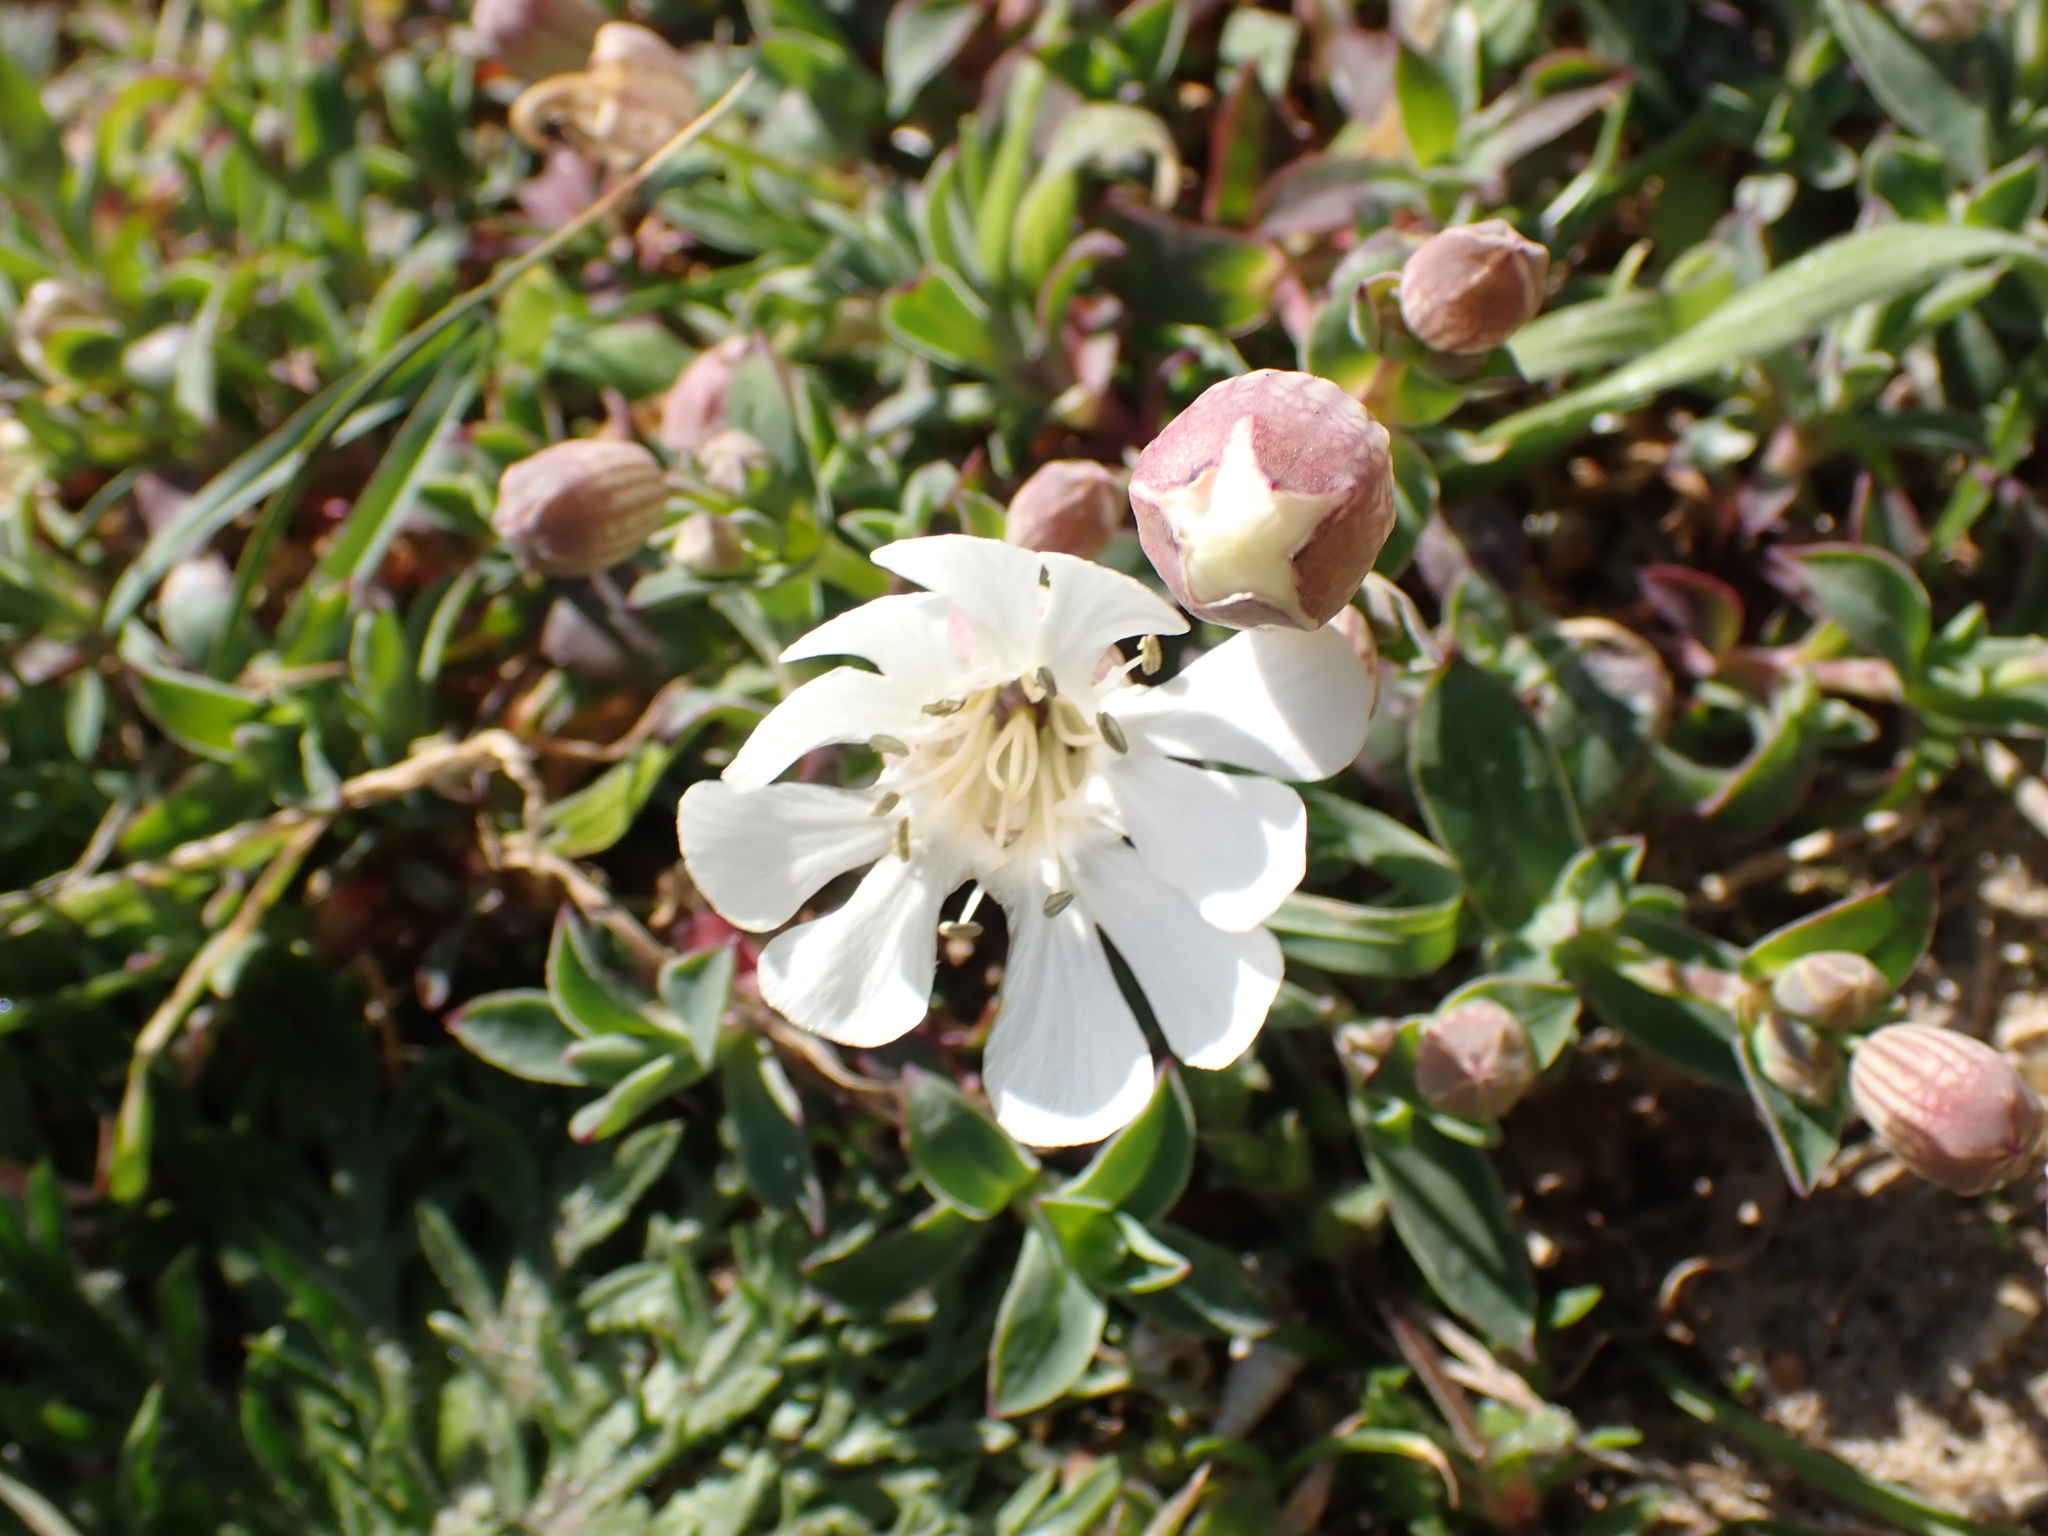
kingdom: Plantae
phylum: Tracheophyta
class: Magnoliopsida
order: Caryophyllales
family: Caryophyllaceae
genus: Silene
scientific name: Silene uniflora
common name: Sea campion
